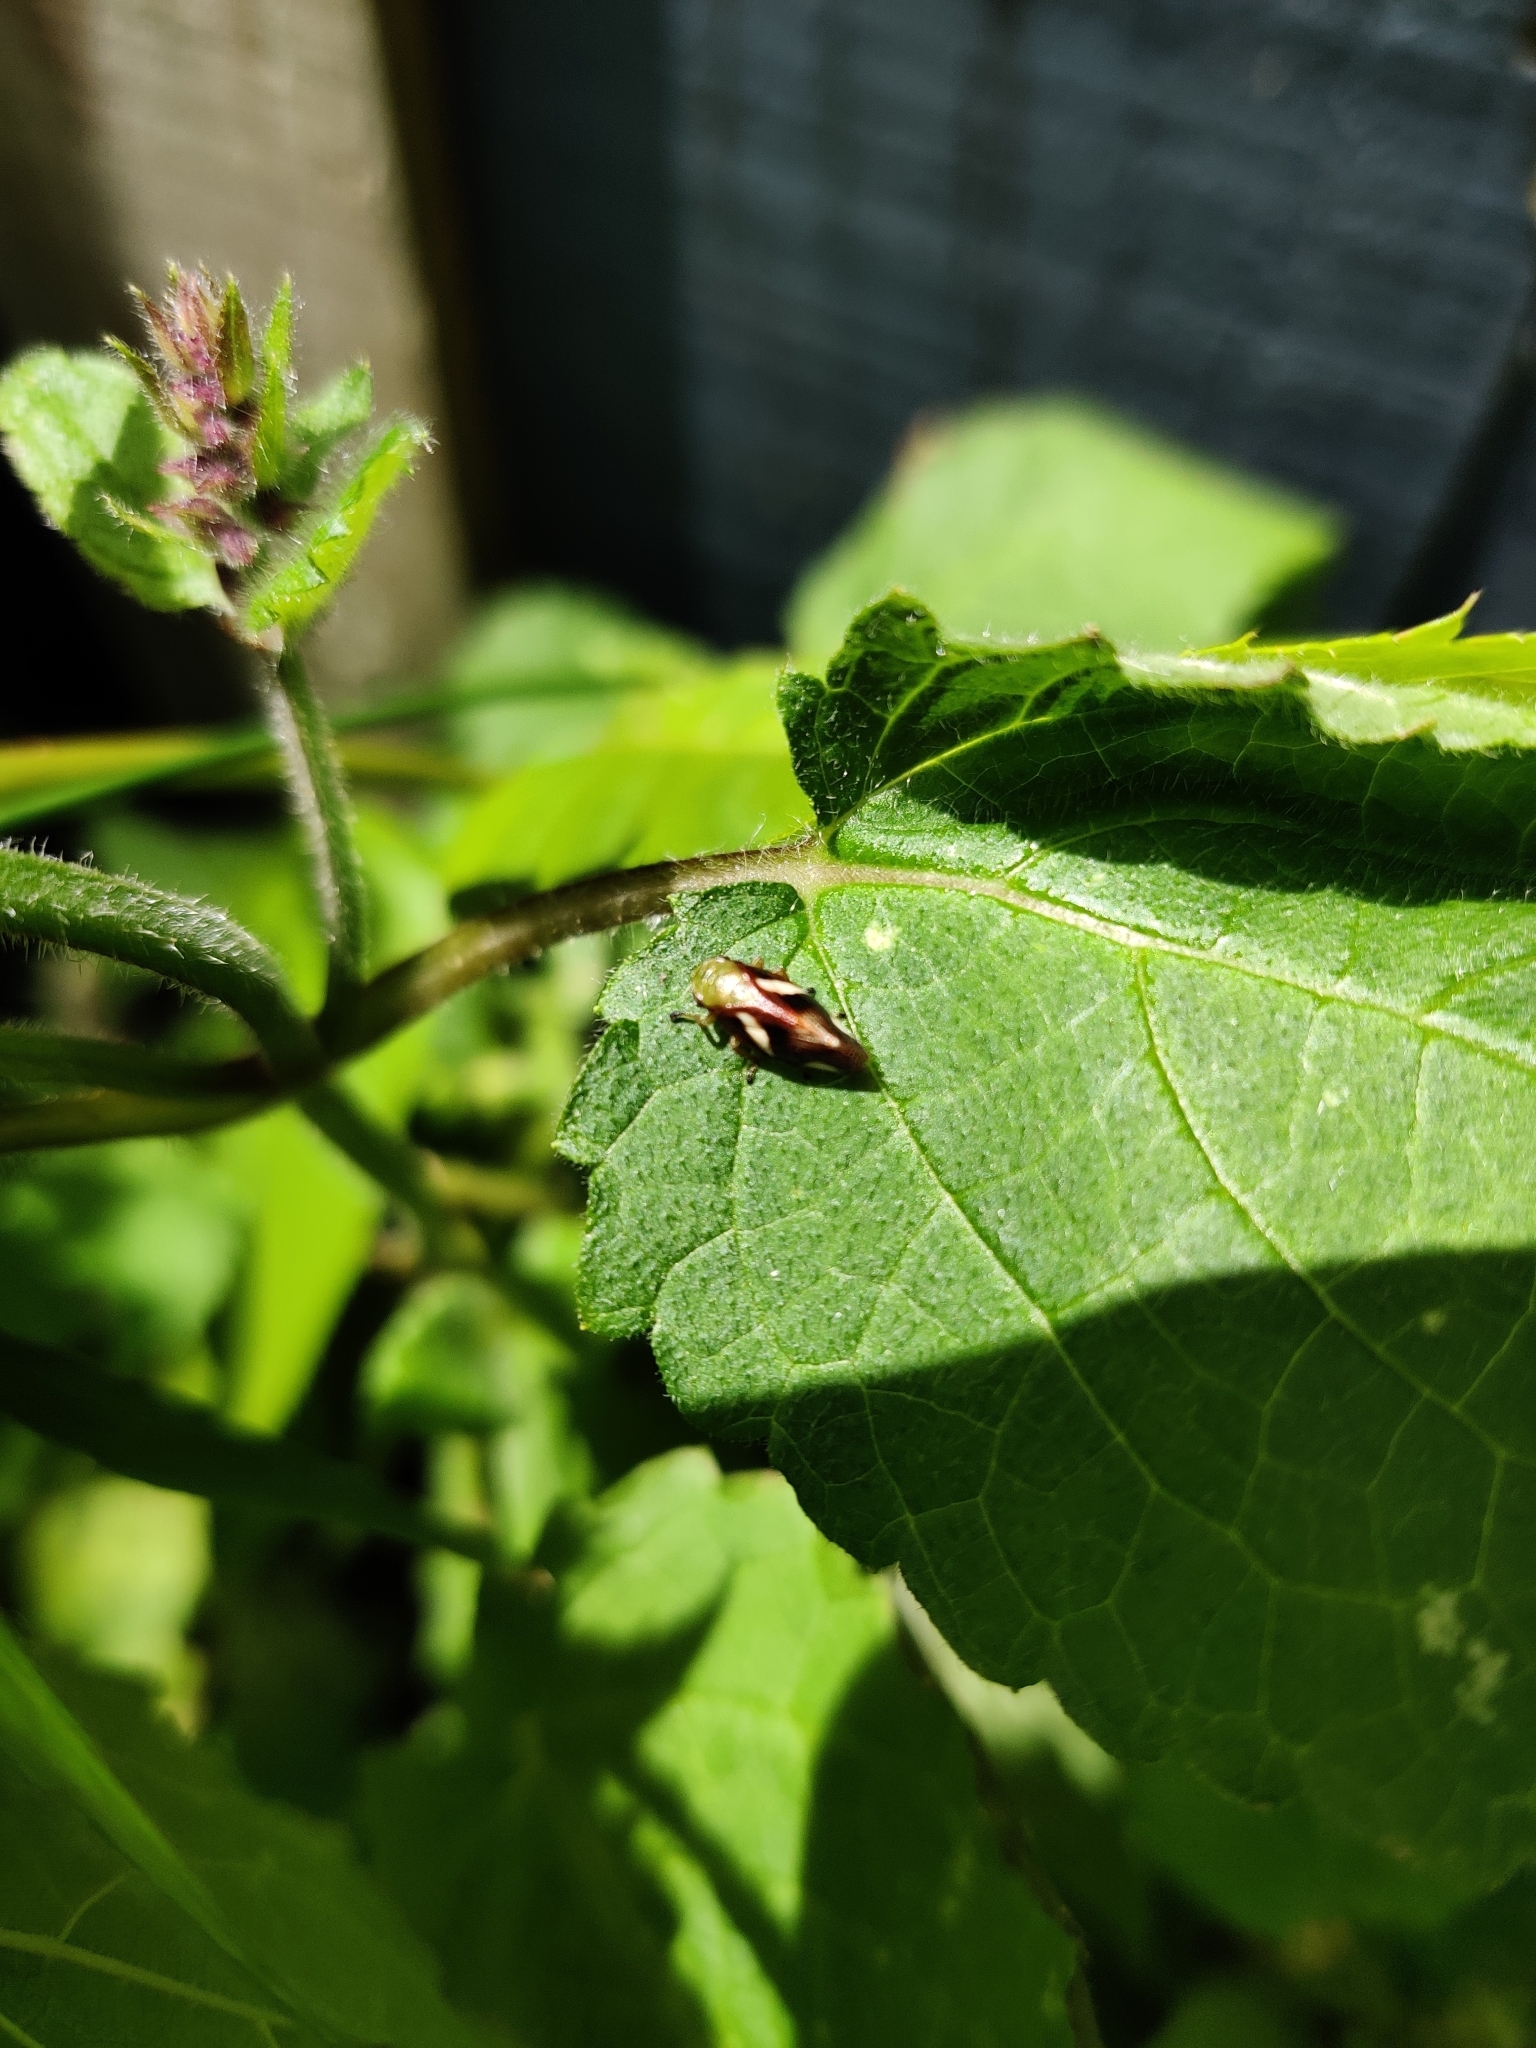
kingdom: Animalia
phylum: Arthropoda
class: Insecta
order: Hemiptera
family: Aphrophoridae
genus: Carystoterpa
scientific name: Carystoterpa fingens
